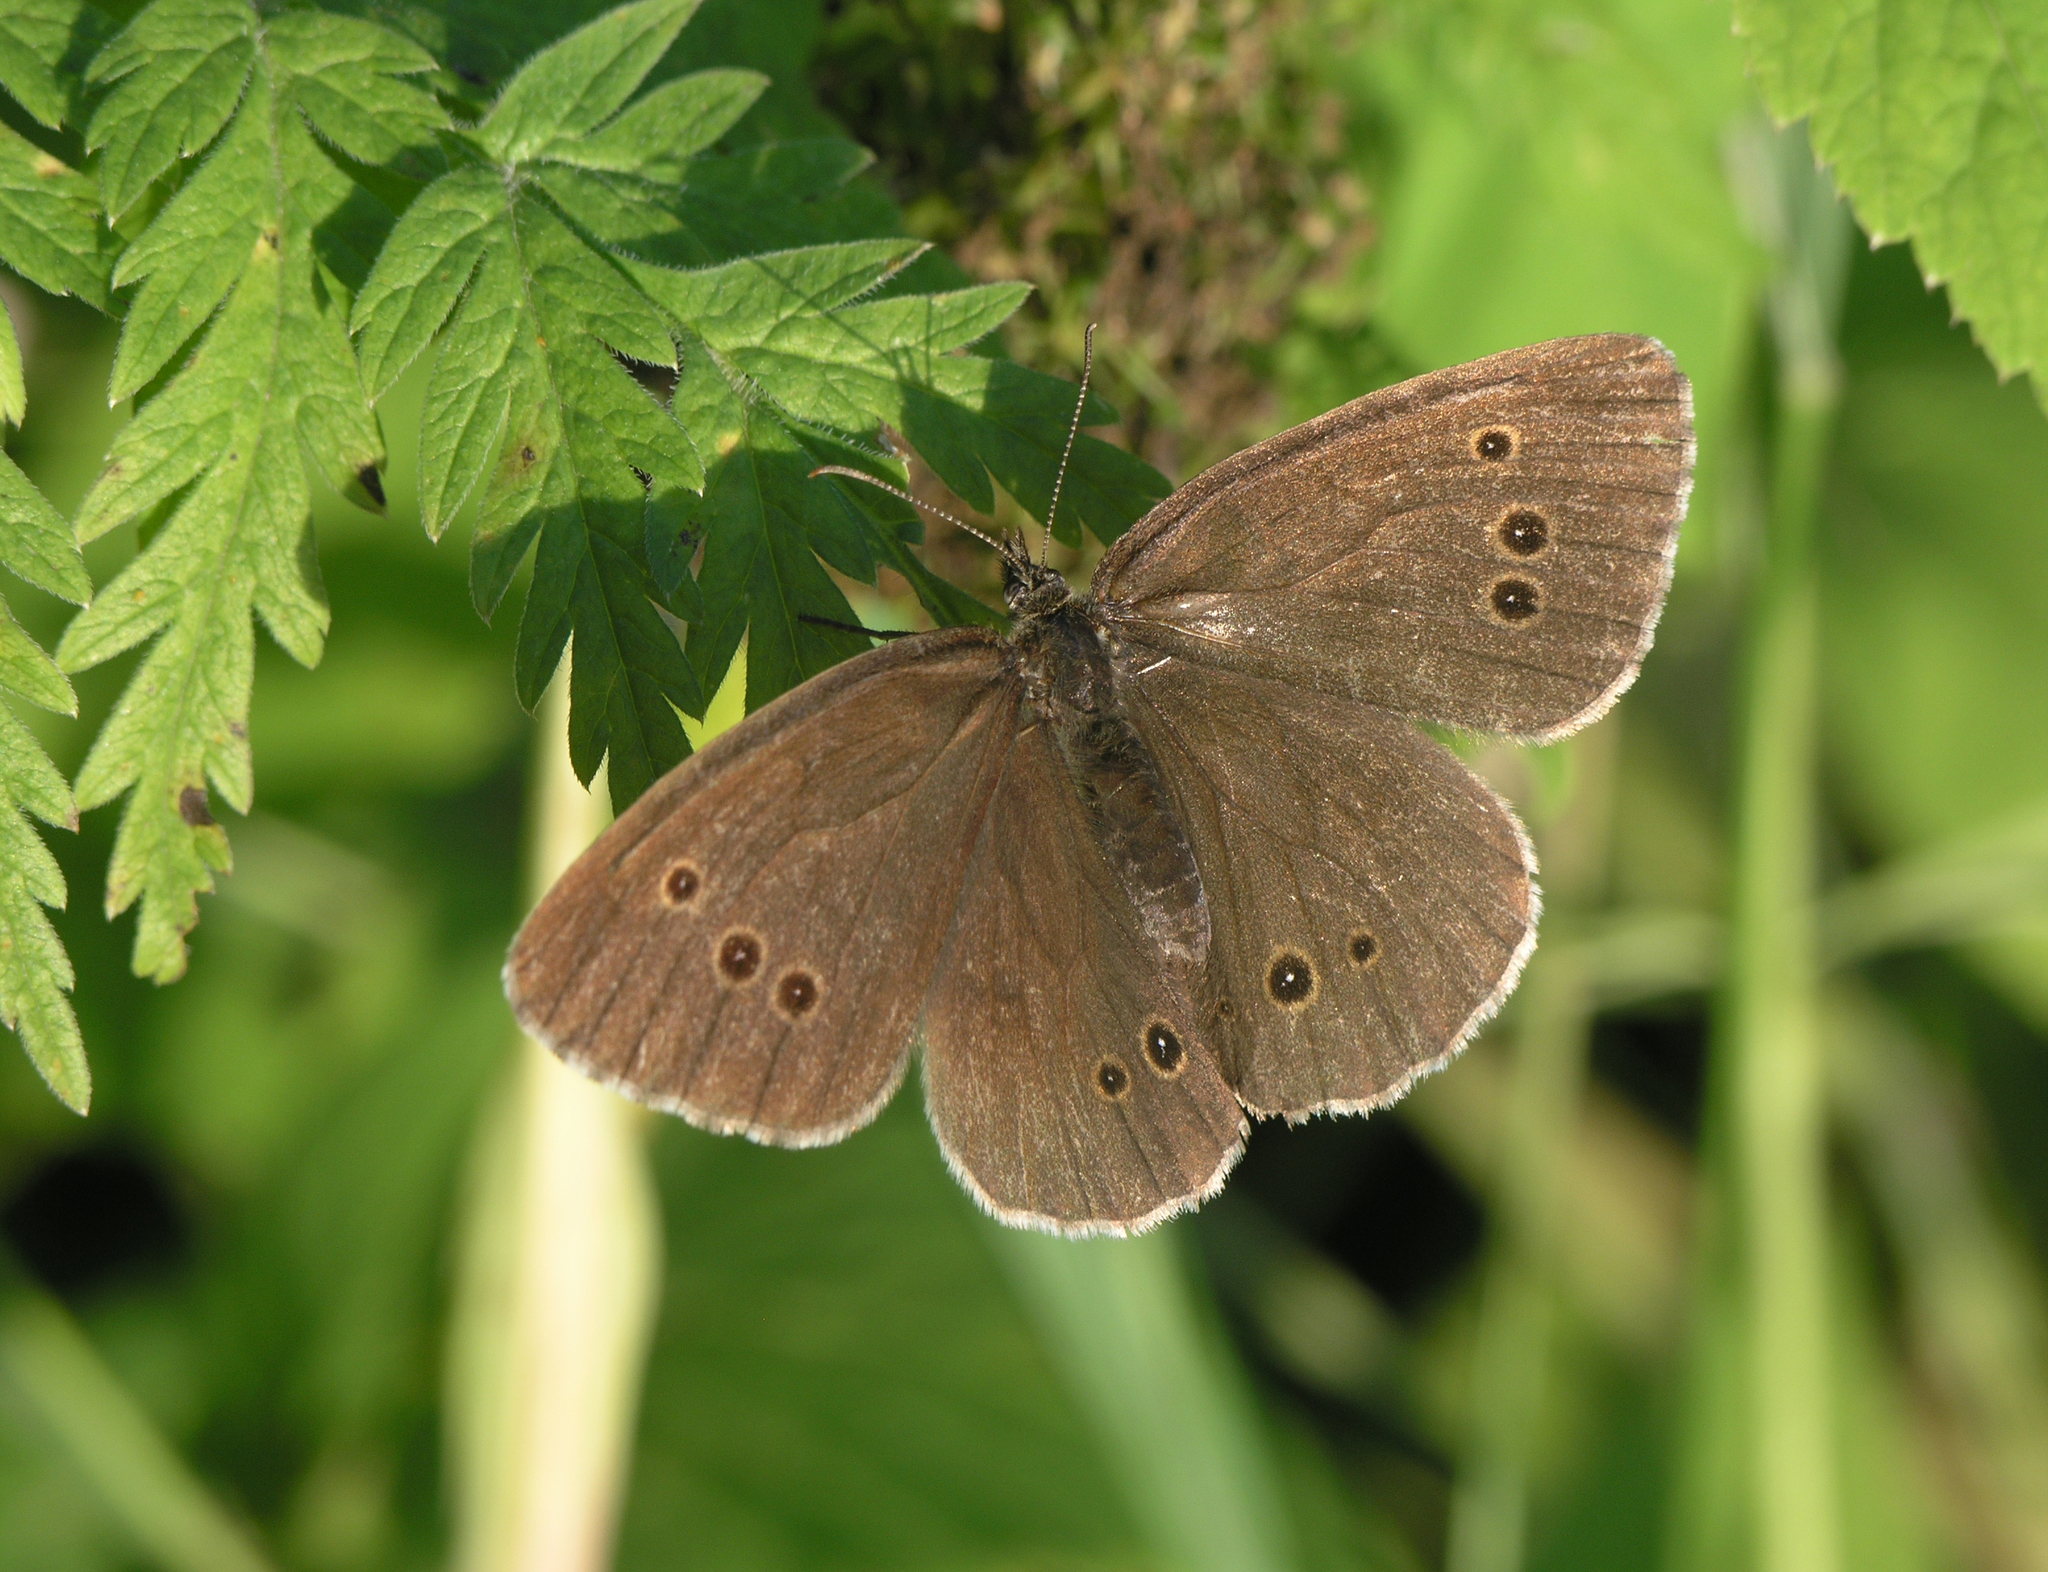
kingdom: Animalia
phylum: Arthropoda
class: Insecta
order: Lepidoptera
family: Nymphalidae
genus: Aphantopus
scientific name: Aphantopus hyperantus
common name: Ringlet
